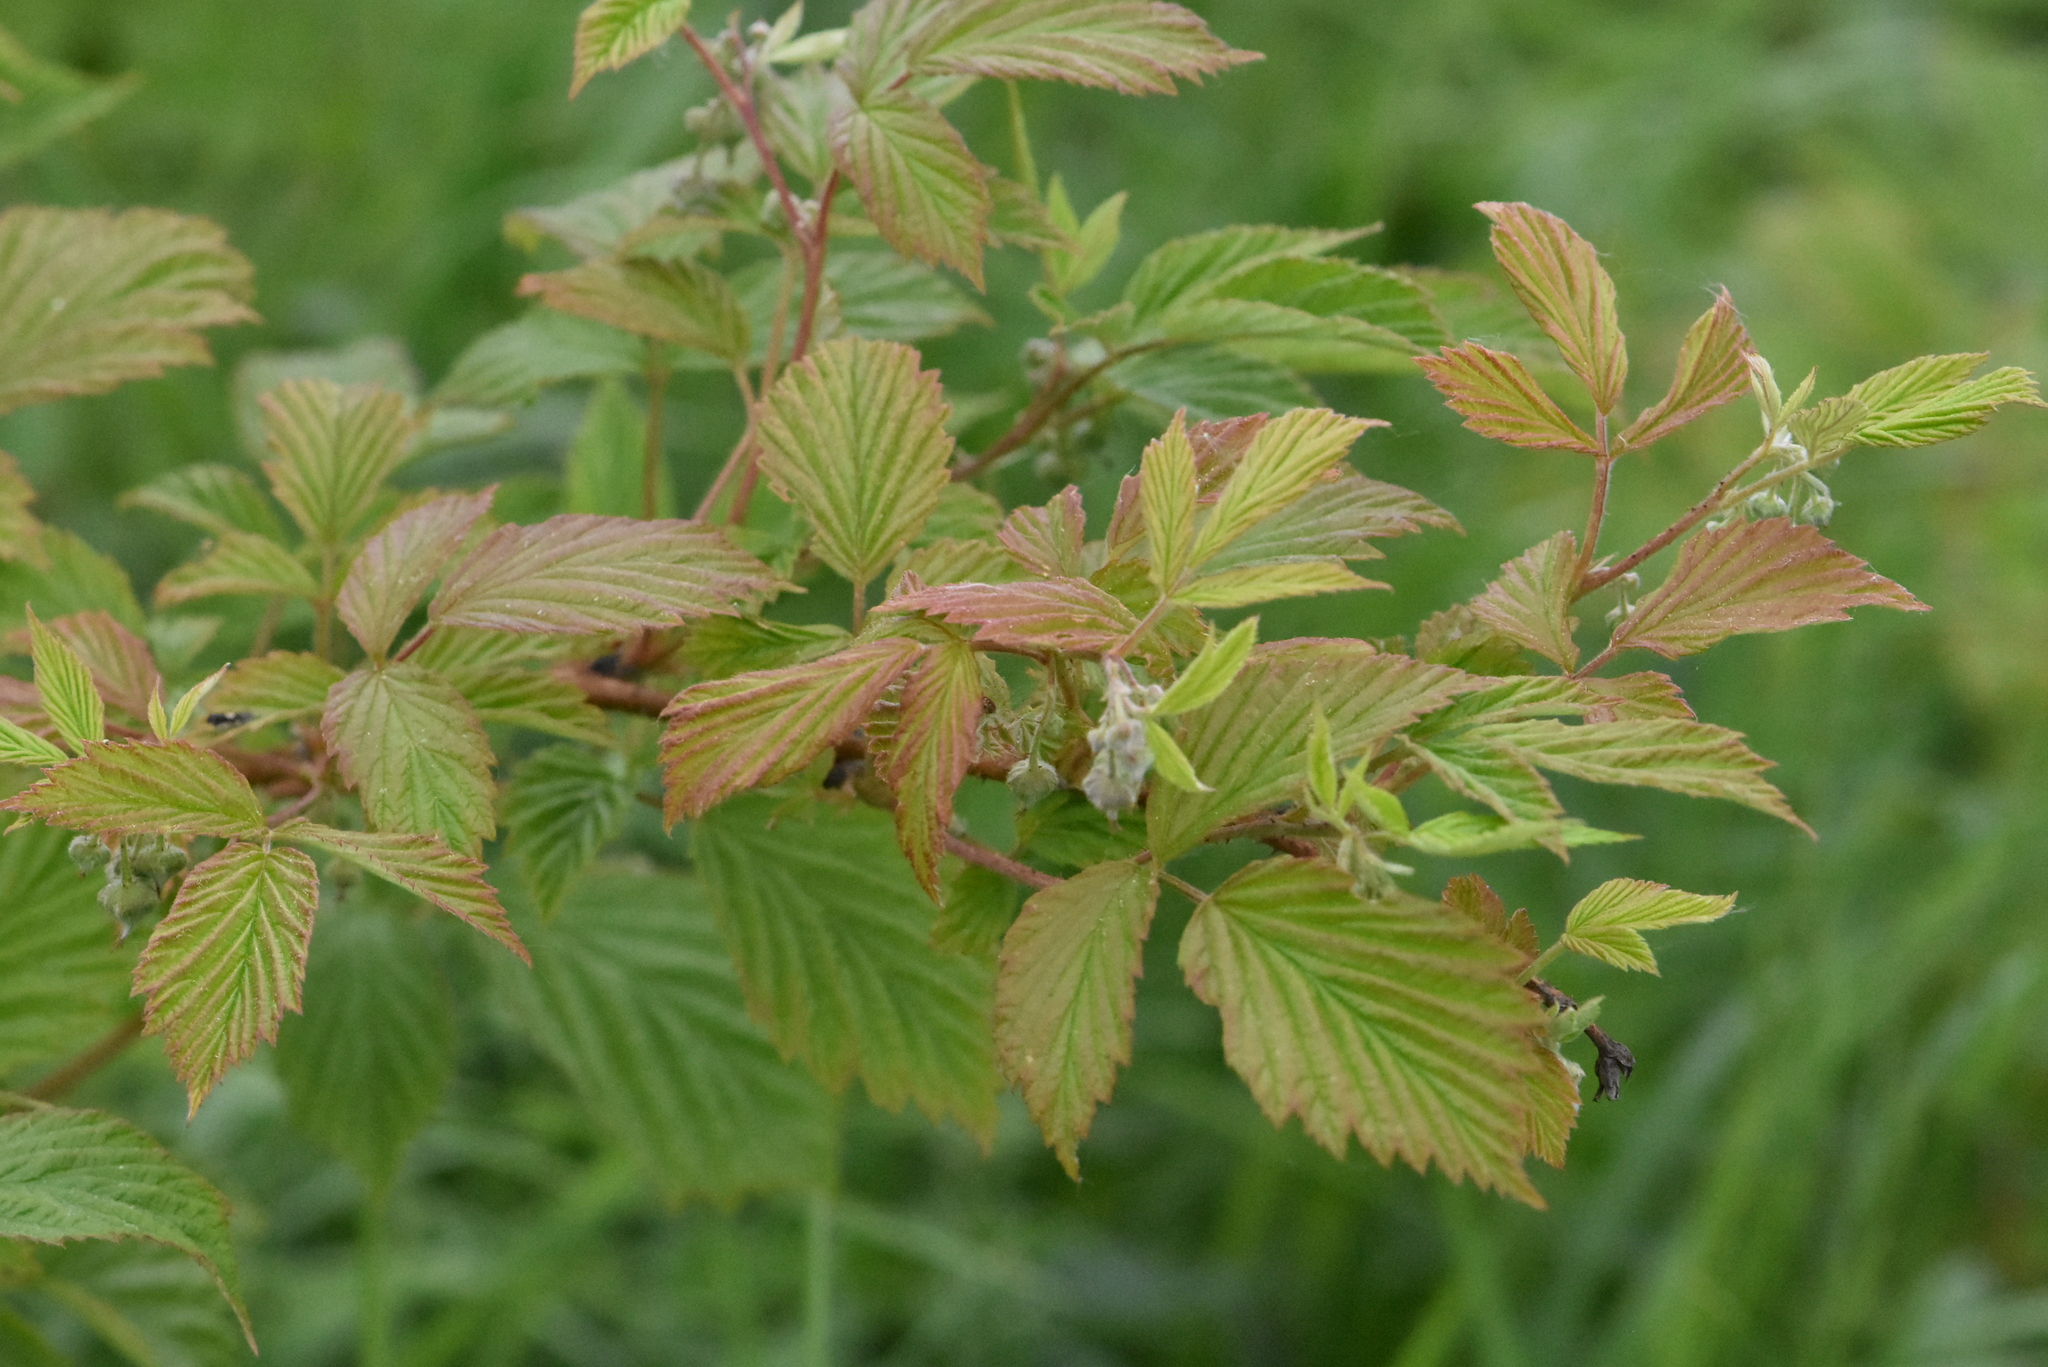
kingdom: Plantae
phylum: Tracheophyta
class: Magnoliopsida
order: Rosales
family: Rosaceae
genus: Rubus
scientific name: Rubus idaeus
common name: Raspberry
